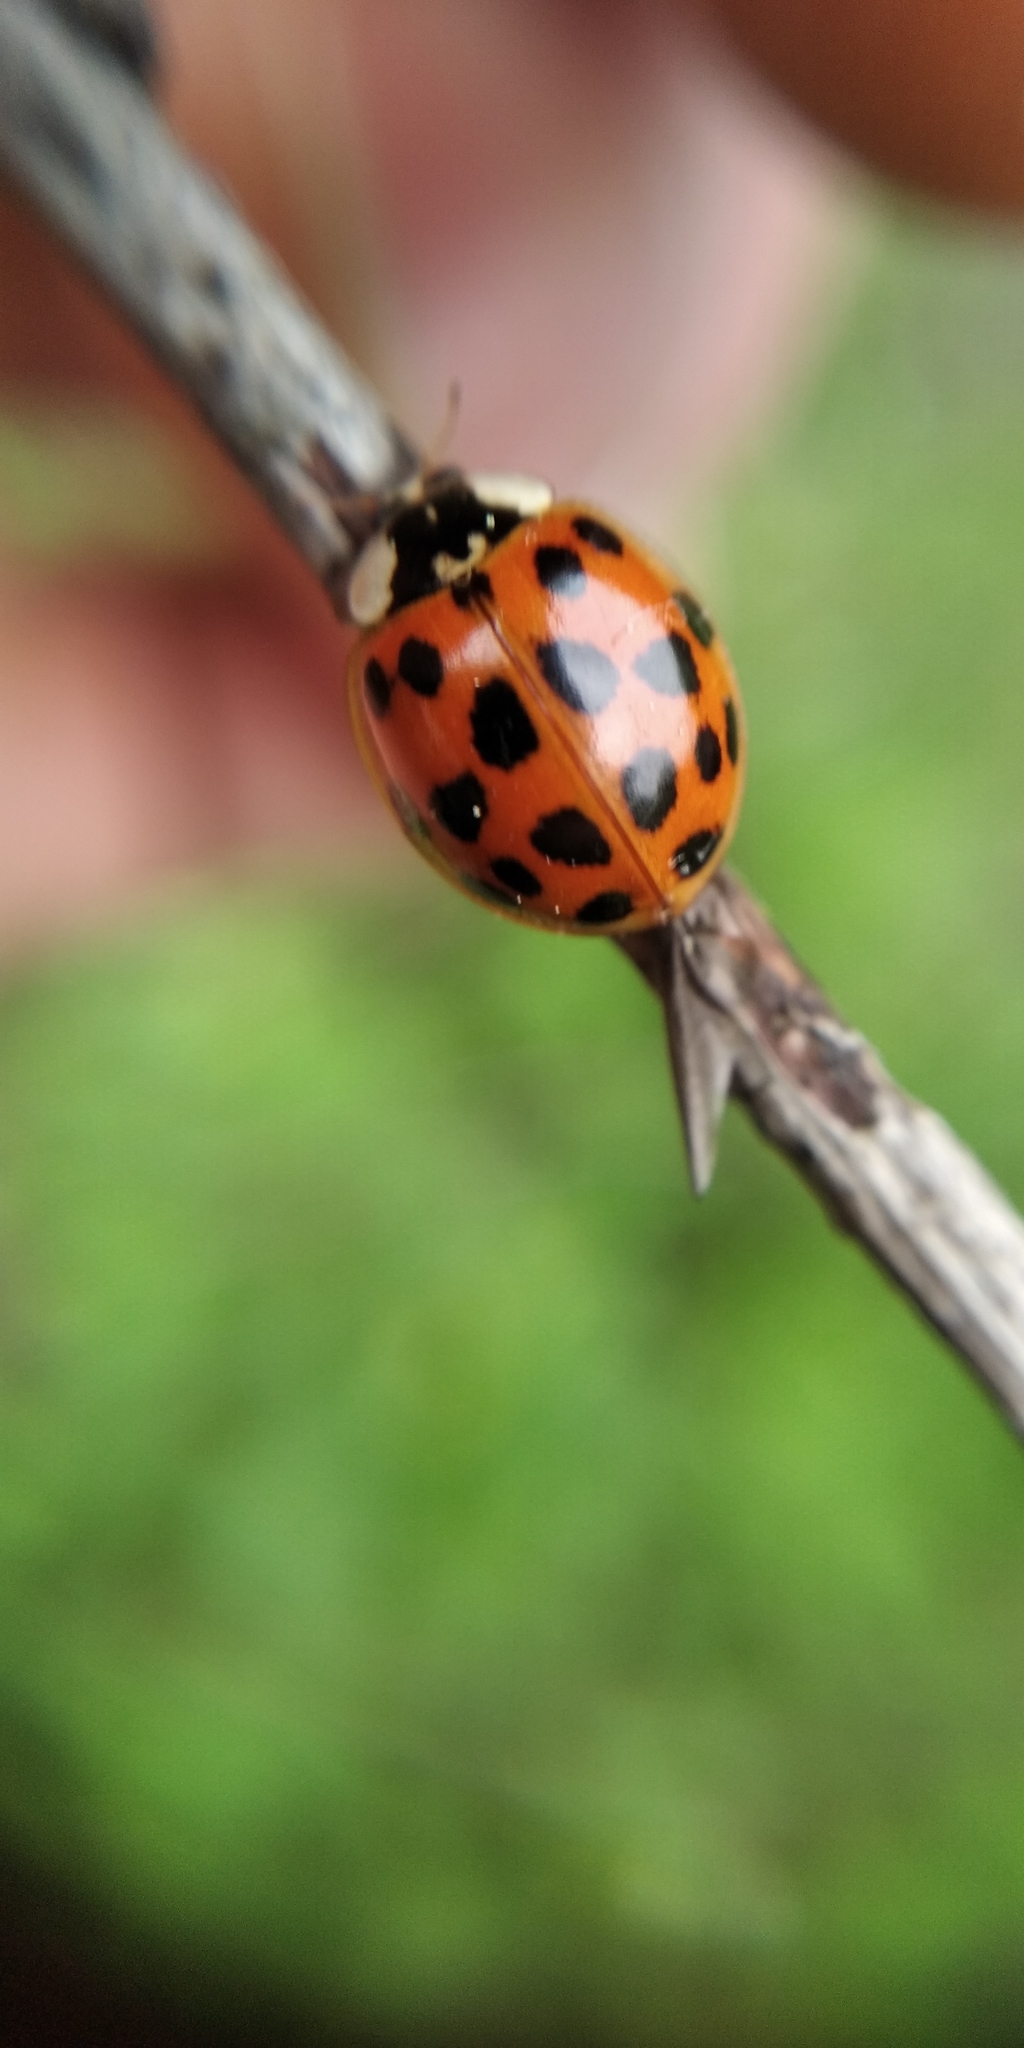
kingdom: Animalia
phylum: Arthropoda
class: Insecta
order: Coleoptera
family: Coccinellidae
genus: Harmonia
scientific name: Harmonia axyridis
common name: Harlequin ladybird
